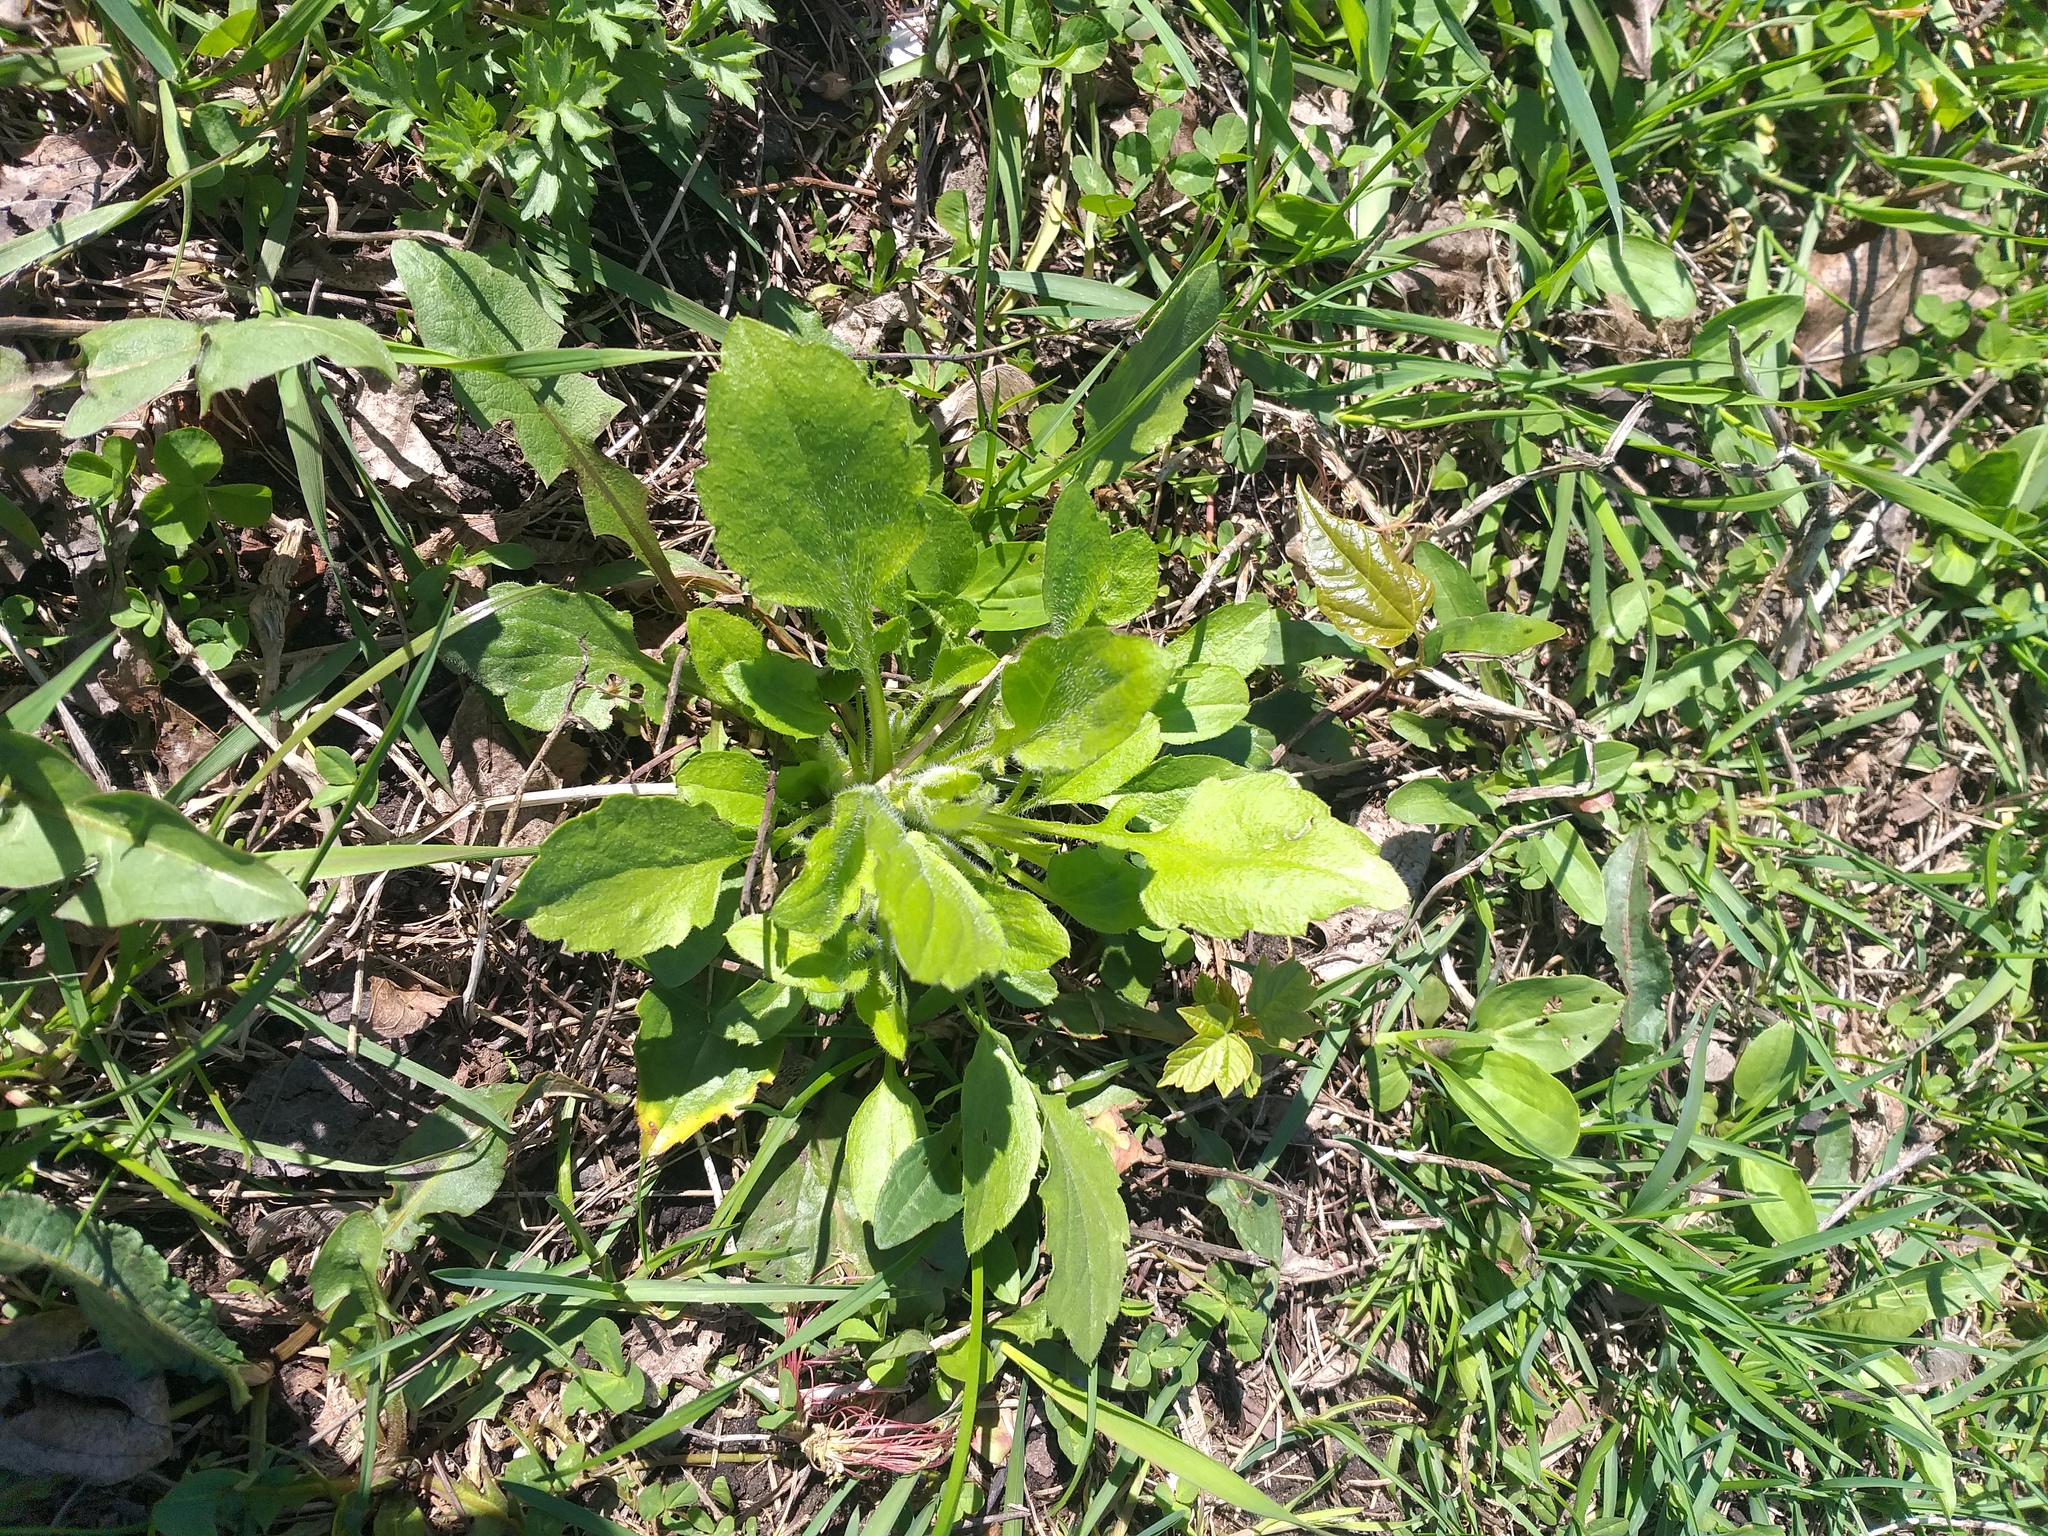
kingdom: Plantae
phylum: Tracheophyta
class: Magnoliopsida
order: Asterales
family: Asteraceae
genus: Erigeron
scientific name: Erigeron annuus
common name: Tall fleabane
